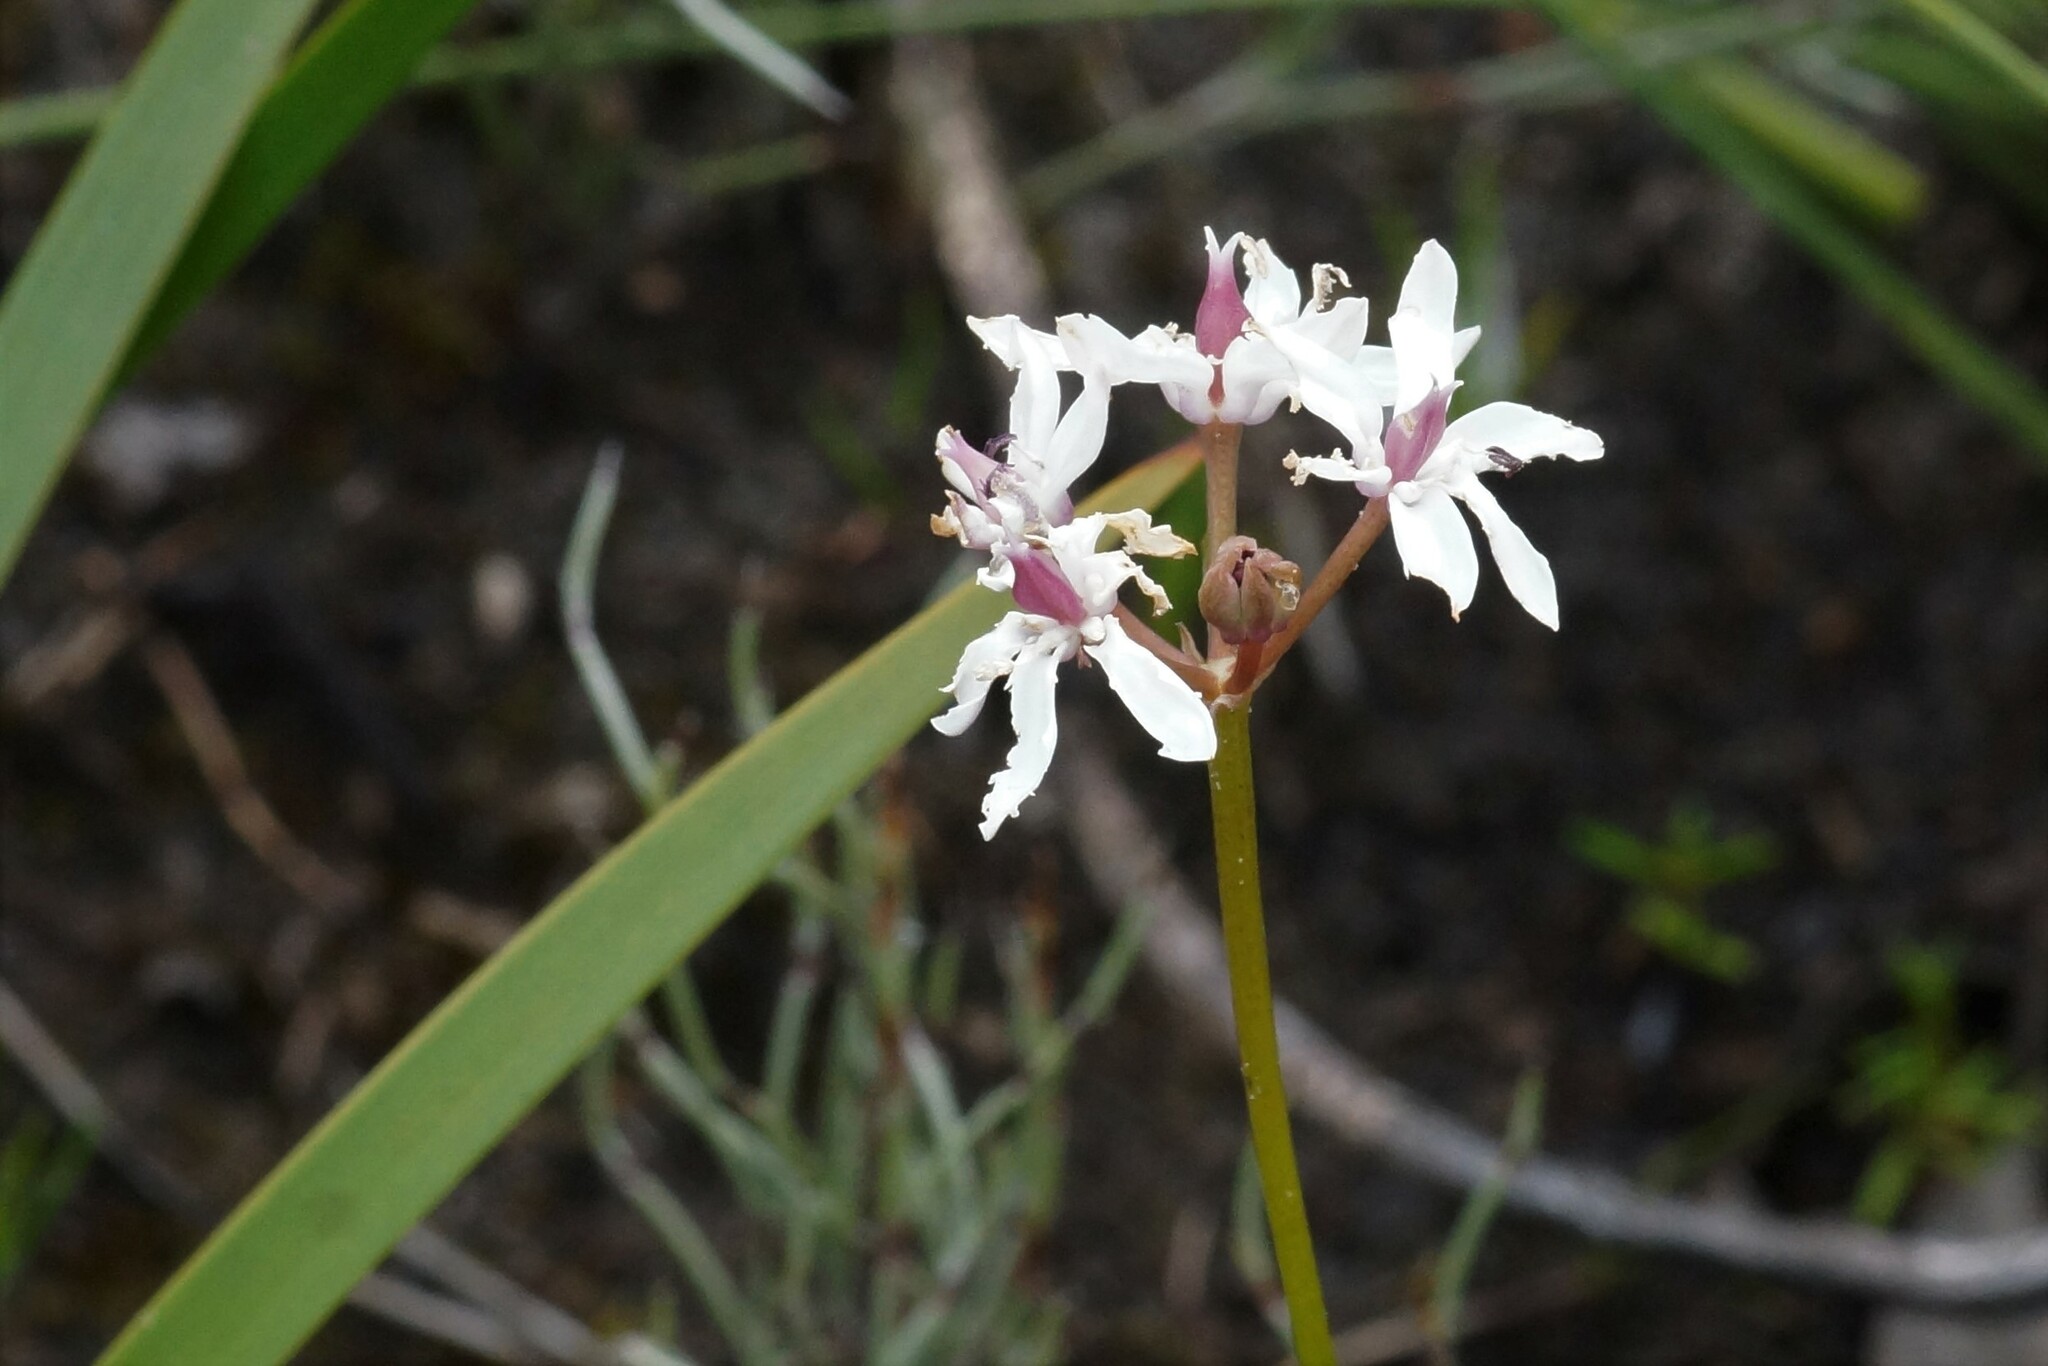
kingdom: Plantae
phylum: Tracheophyta
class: Liliopsida
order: Liliales
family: Colchicaceae
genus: Burchardia
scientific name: Burchardia umbellata
